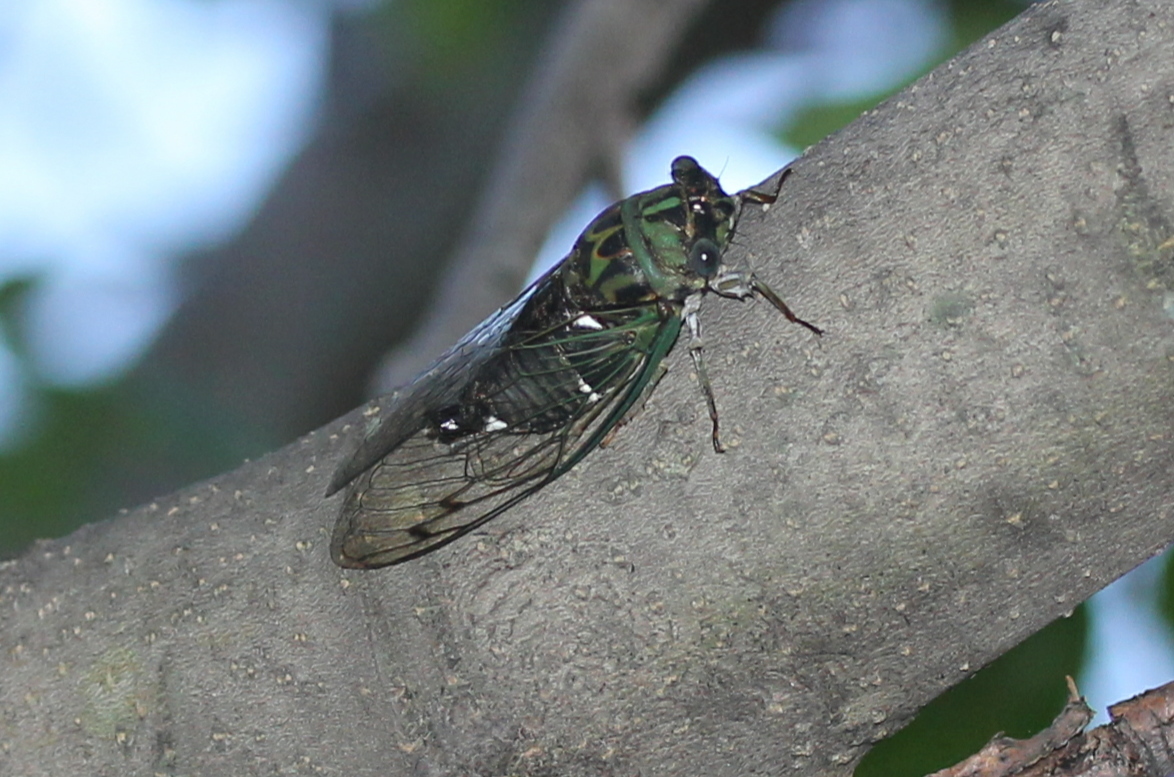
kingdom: Animalia
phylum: Arthropoda
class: Insecta
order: Hemiptera
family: Cicadidae
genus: Neotibicen
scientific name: Neotibicen pruinosus
